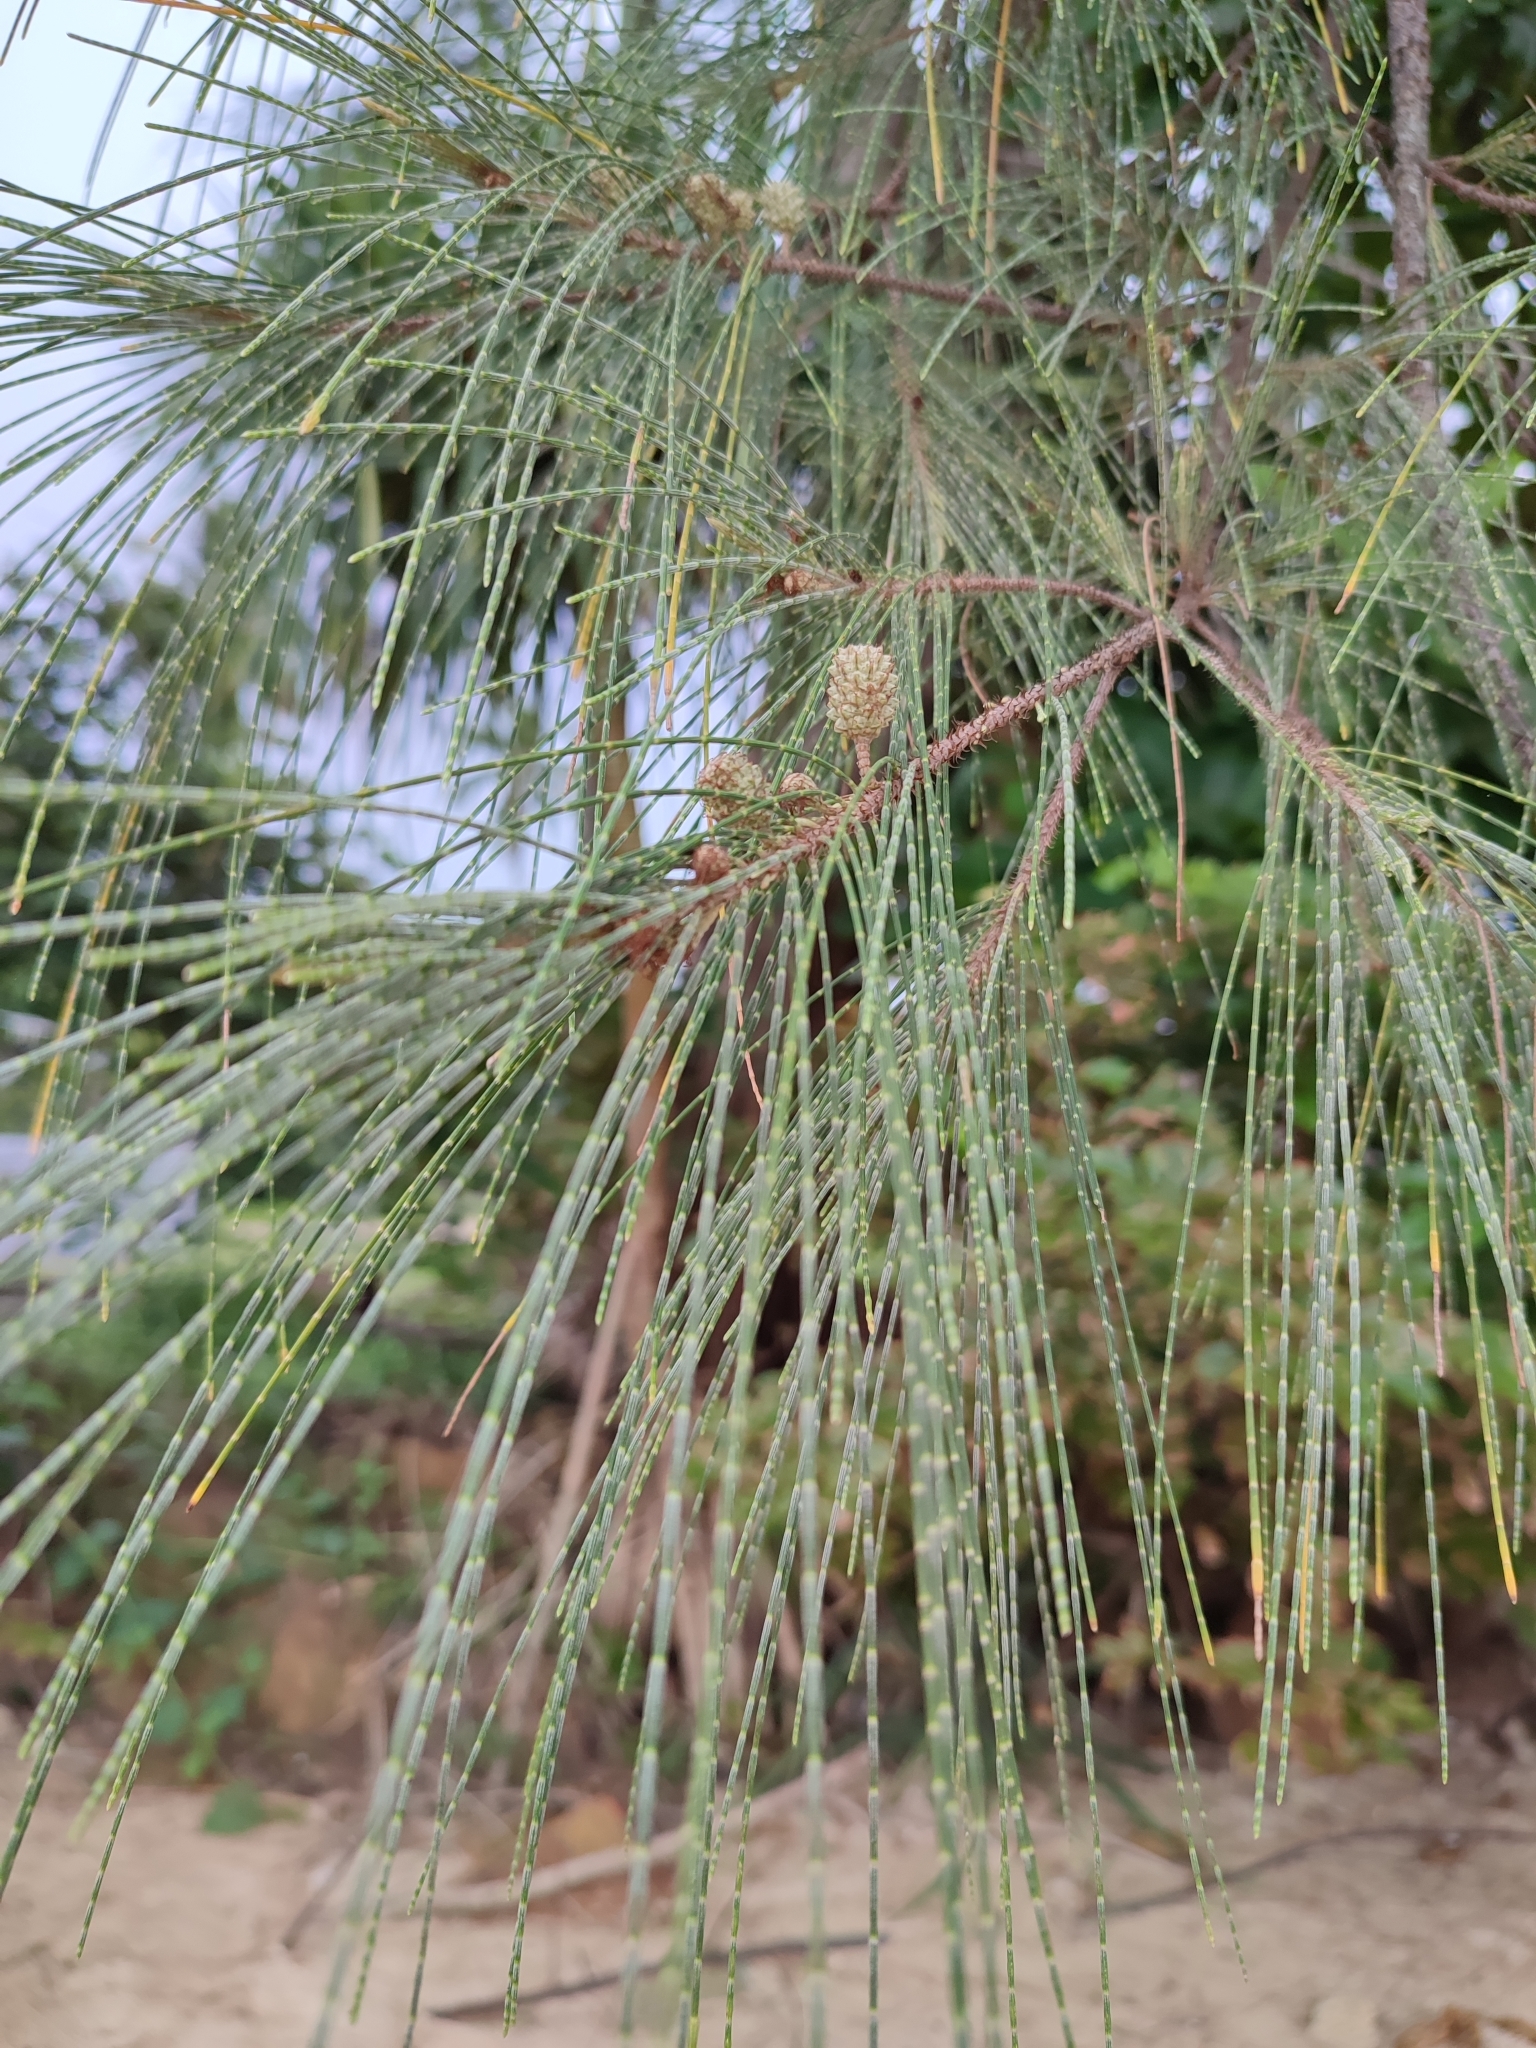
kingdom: Plantae
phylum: Tracheophyta
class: Magnoliopsida
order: Fagales
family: Casuarinaceae
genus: Casuarina
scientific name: Casuarina equisetifolia
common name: Beach sheoak
